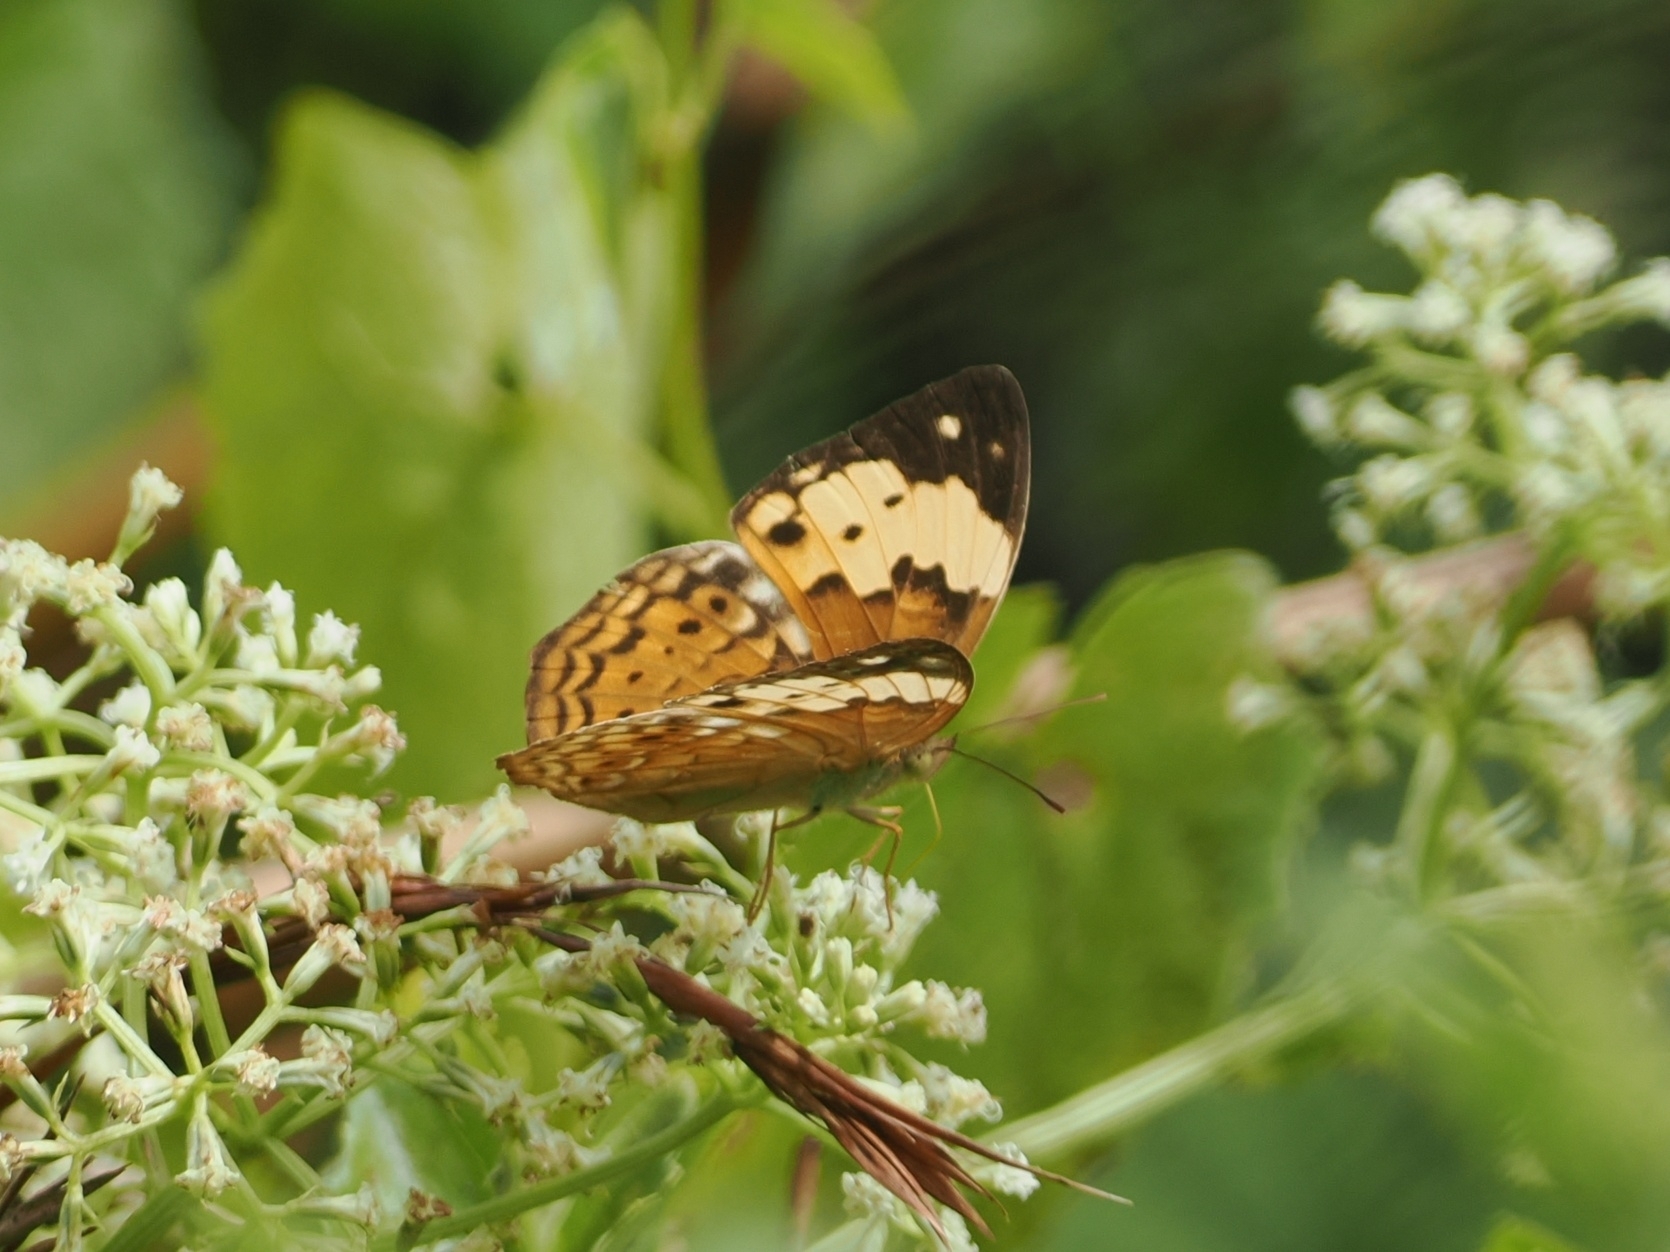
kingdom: Animalia
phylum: Arthropoda
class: Insecta
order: Lepidoptera
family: Nymphalidae
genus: Cupha
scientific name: Cupha erymanthis
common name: Rustic
